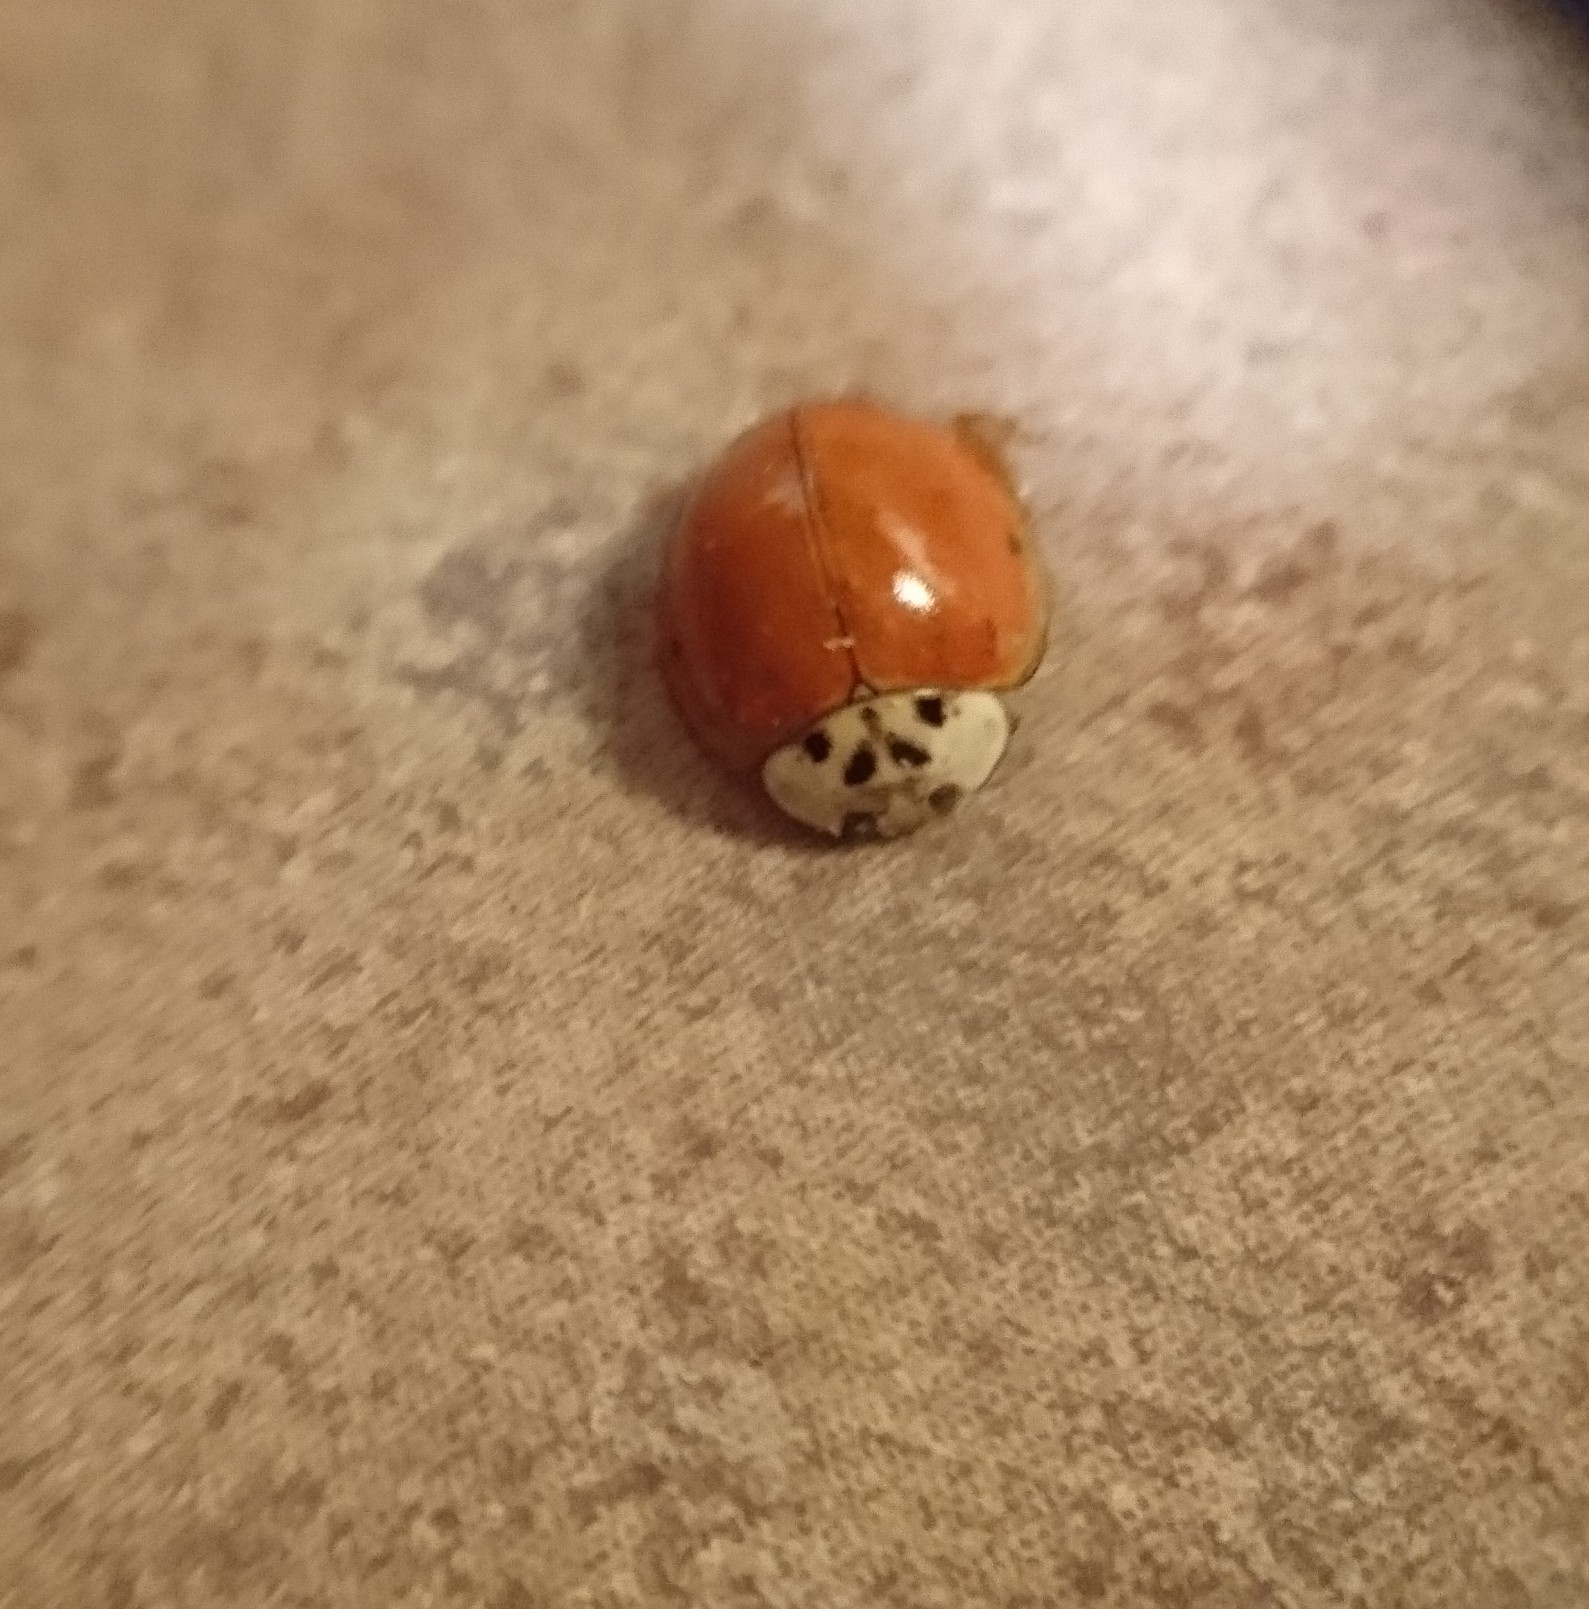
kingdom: Animalia
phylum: Arthropoda
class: Insecta
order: Coleoptera
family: Coccinellidae
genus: Harmonia
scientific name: Harmonia axyridis
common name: Harlequin ladybird
